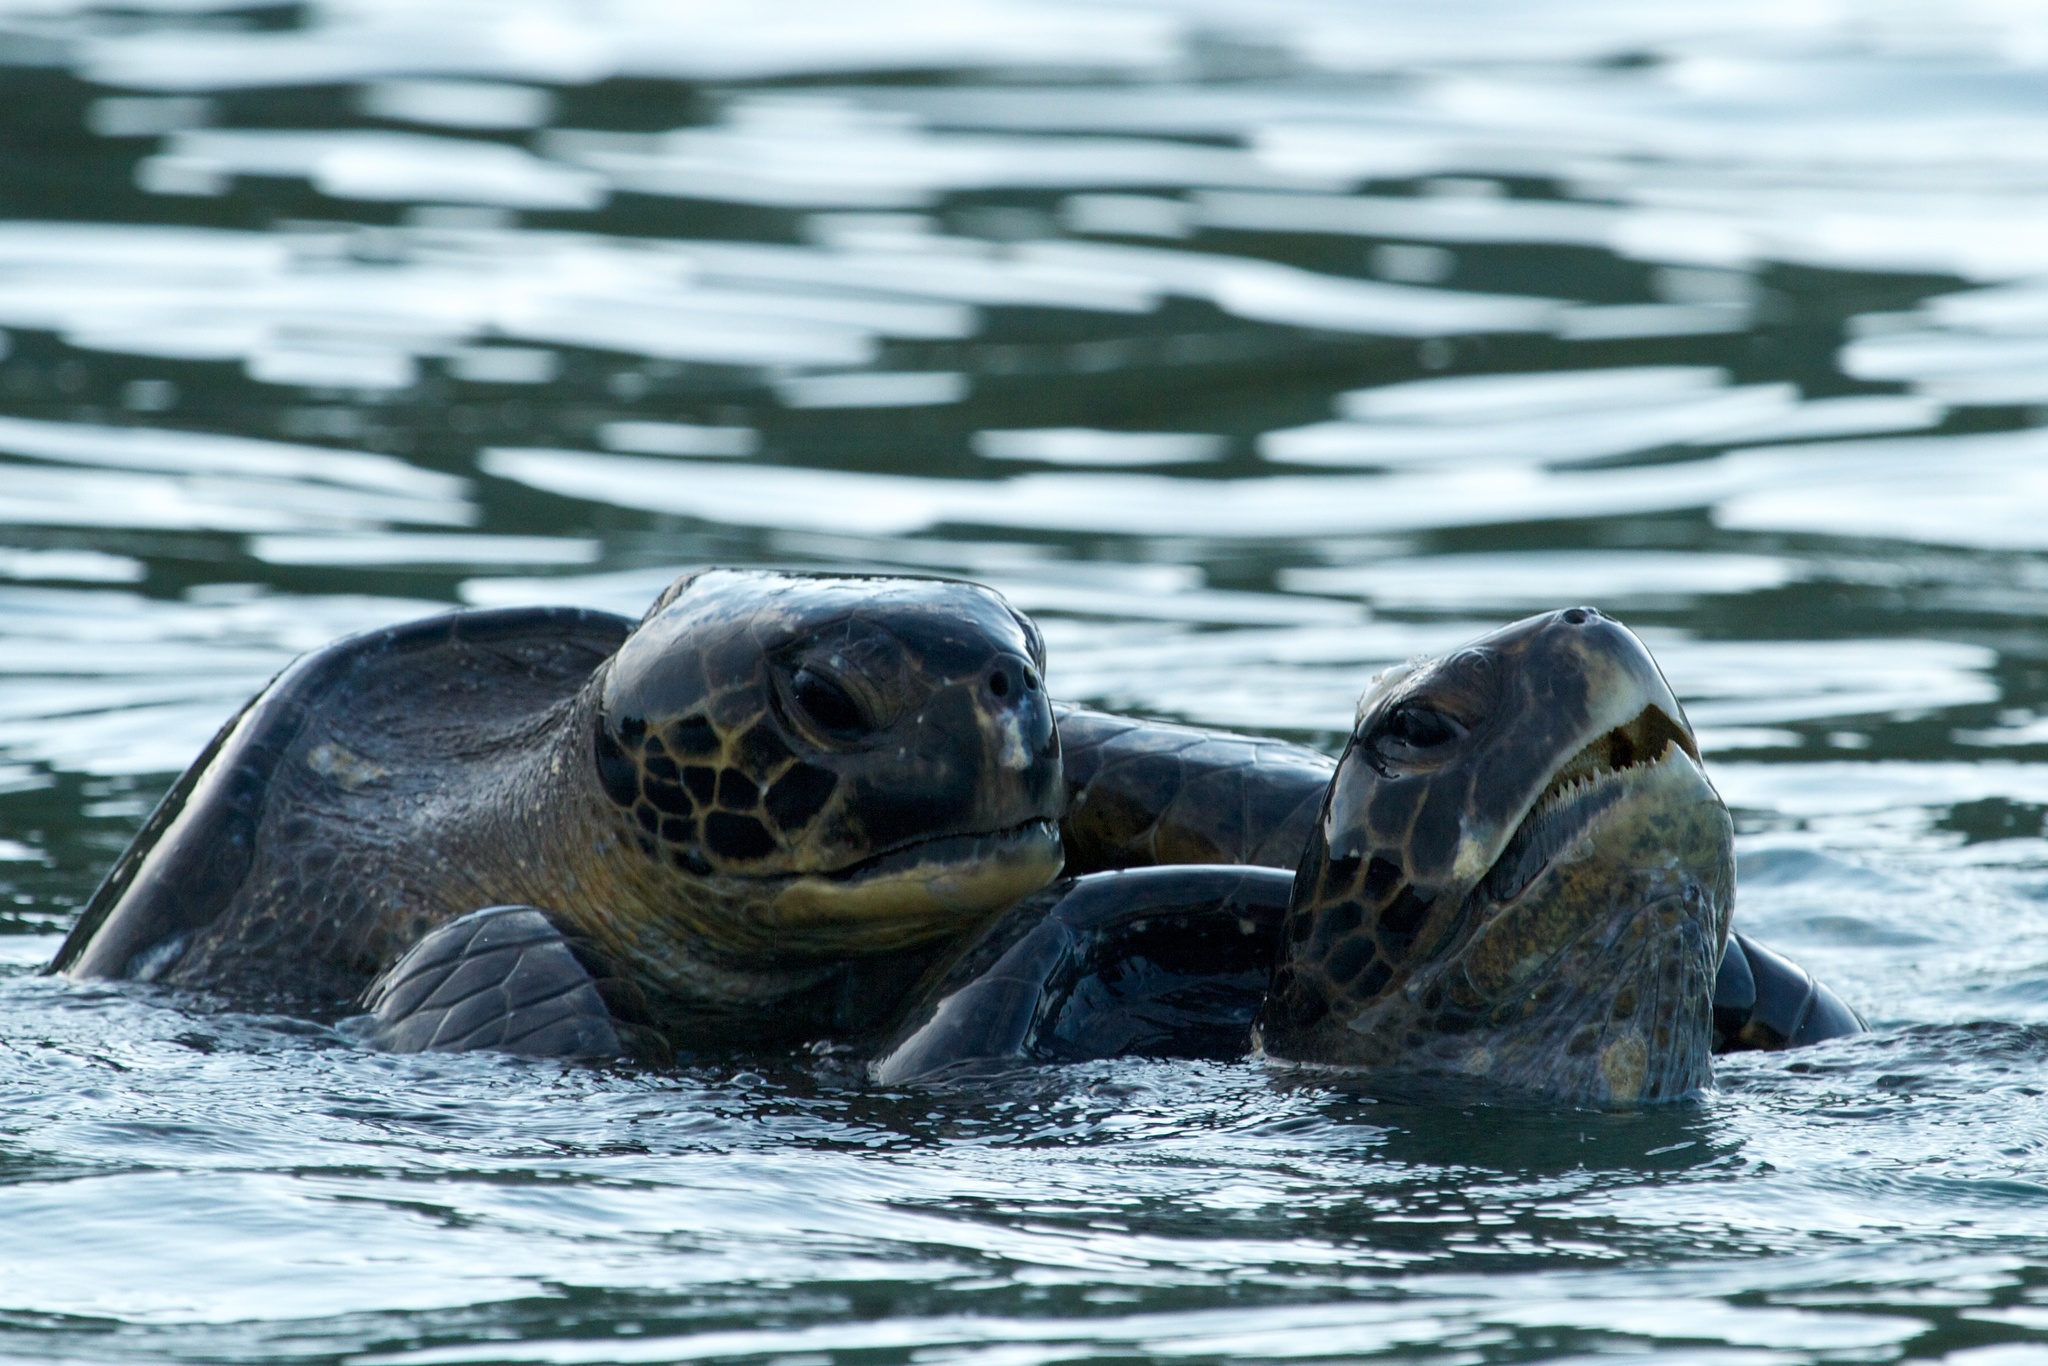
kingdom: Animalia
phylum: Chordata
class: Testudines
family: Cheloniidae
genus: Chelonia
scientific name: Chelonia mydas
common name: Green turtle
